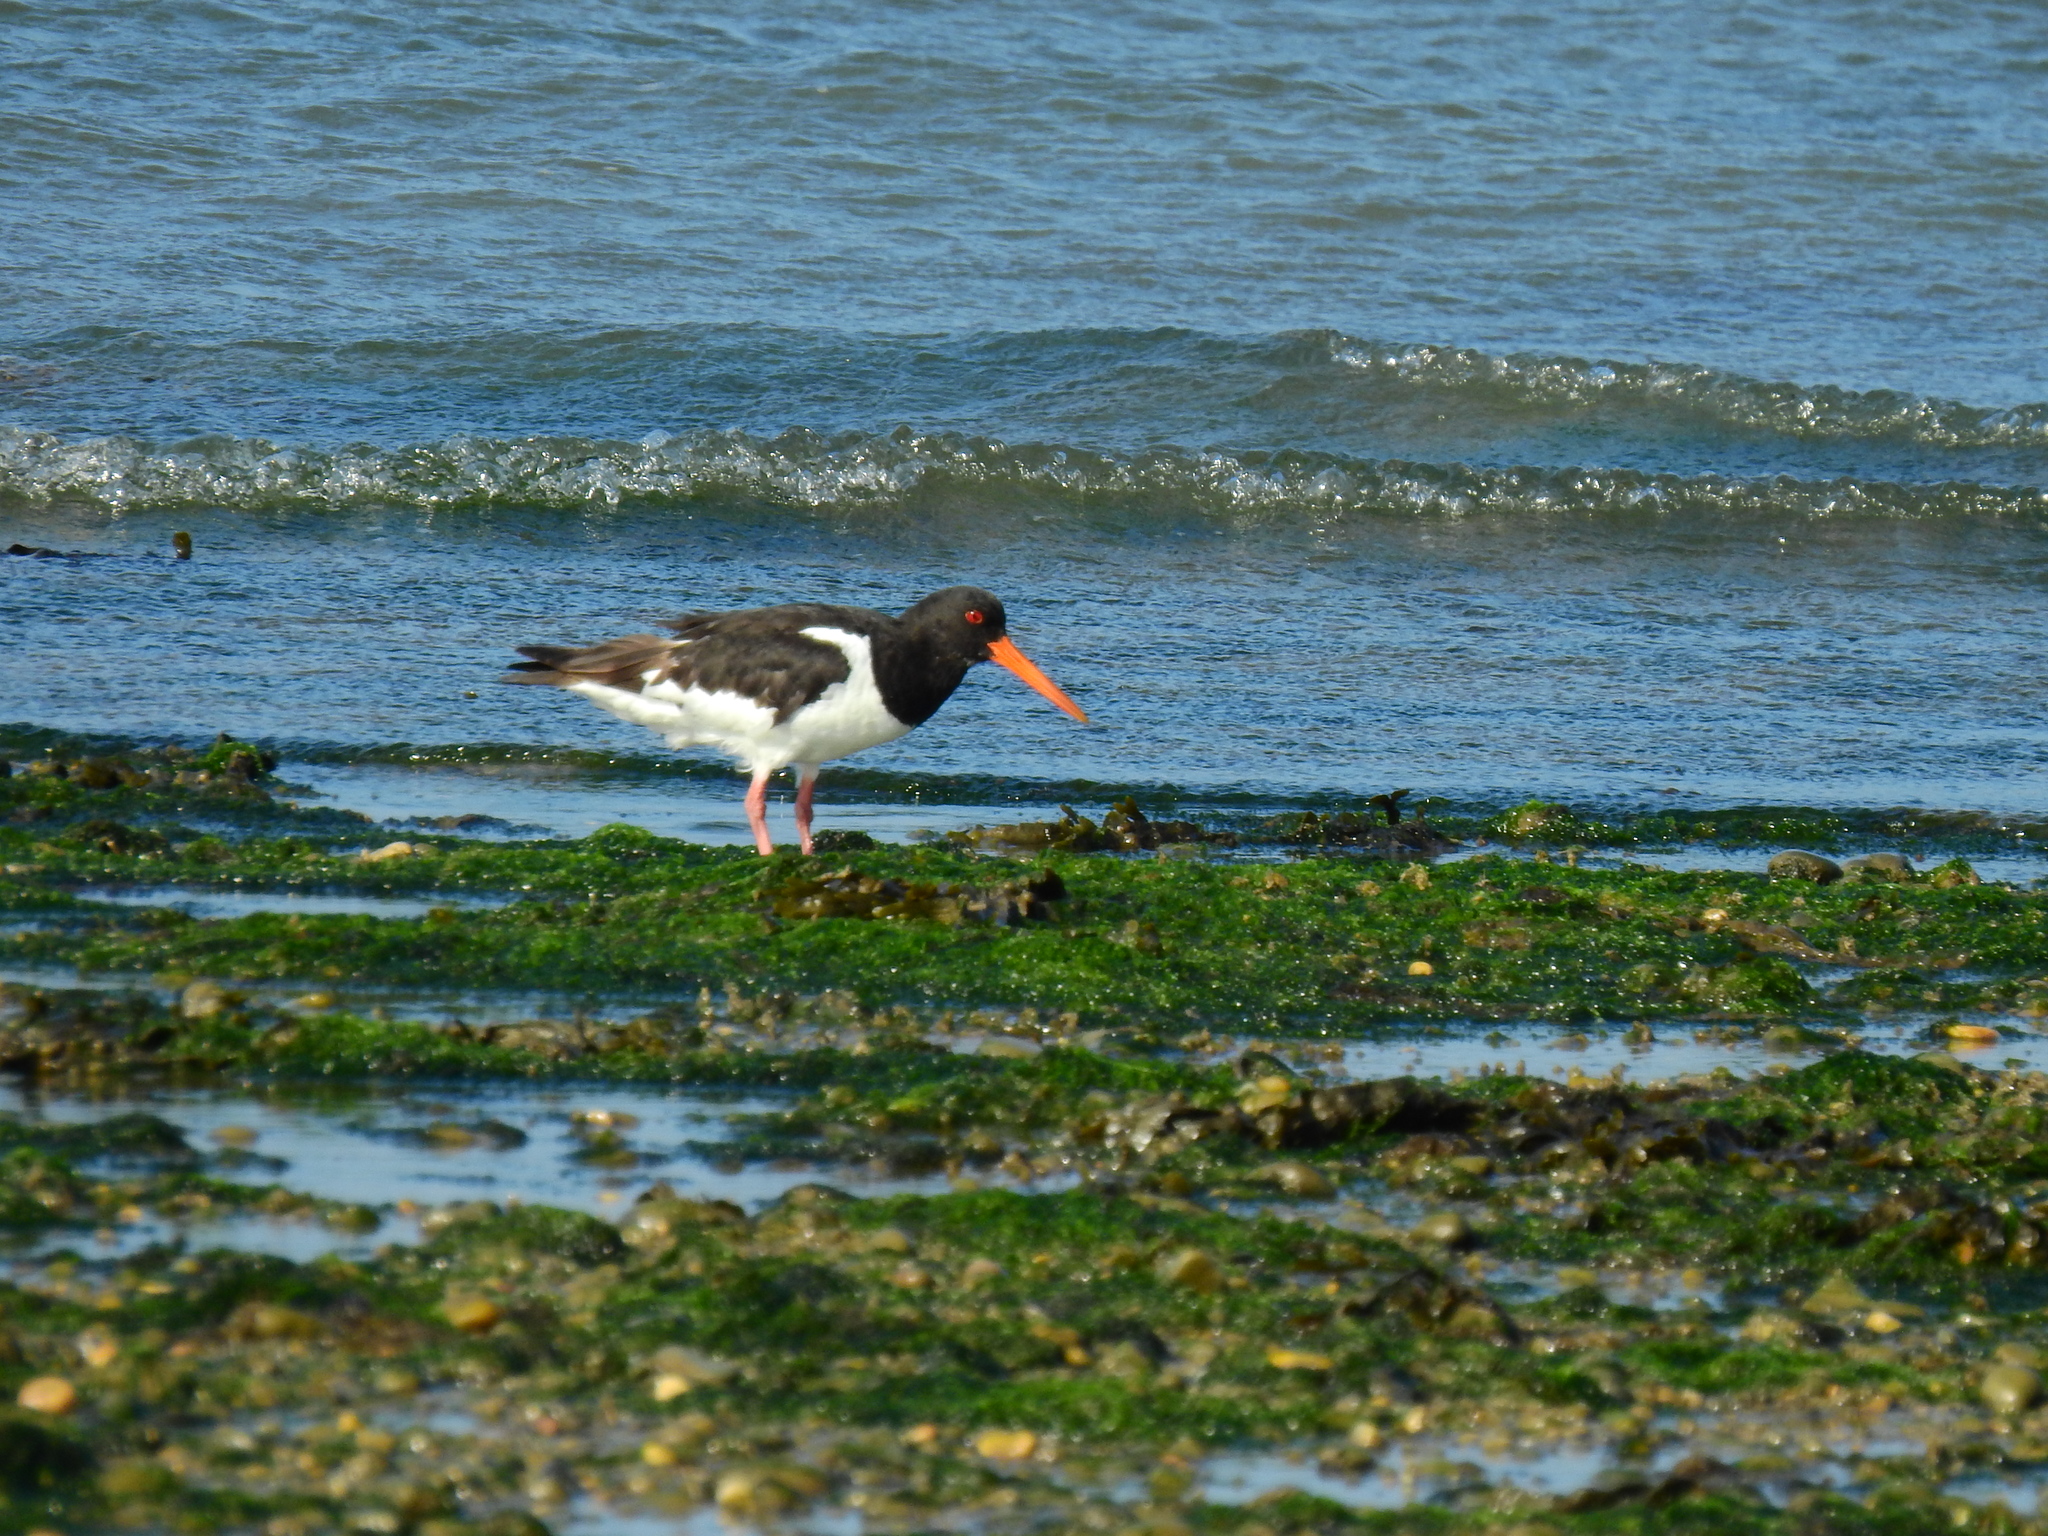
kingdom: Animalia
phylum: Chordata
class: Aves
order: Charadriiformes
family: Haematopodidae
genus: Haematopus
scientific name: Haematopus ostralegus
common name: Eurasian oystercatcher
